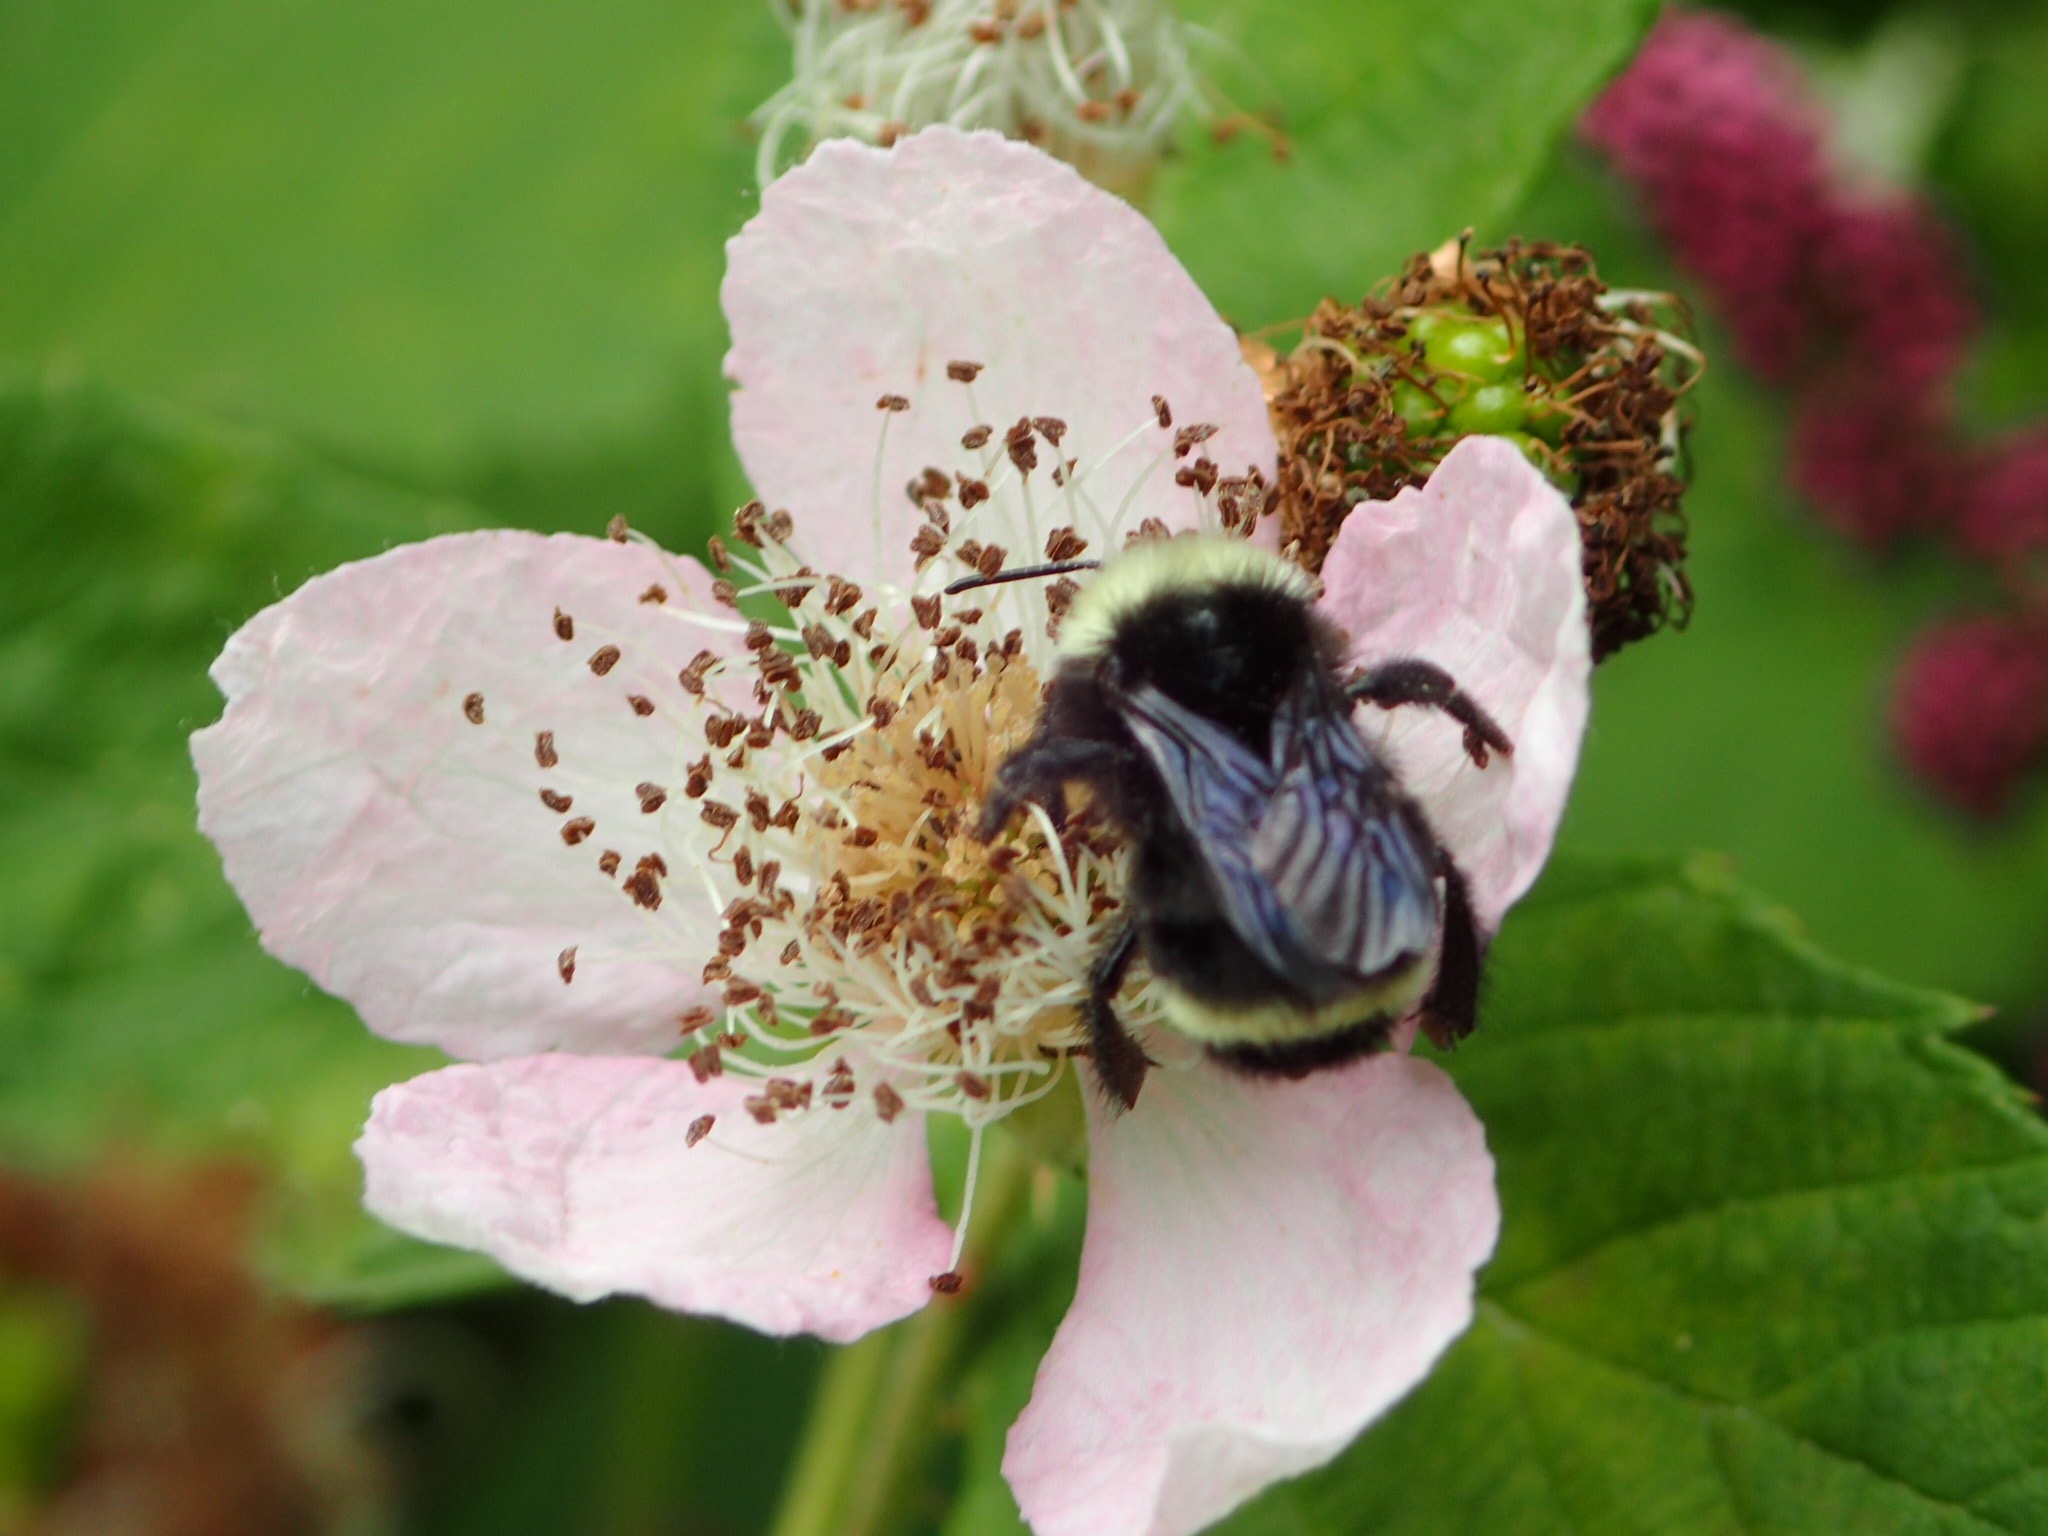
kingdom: Animalia
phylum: Arthropoda
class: Insecta
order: Hymenoptera
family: Apidae
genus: Bombus
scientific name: Bombus vosnesenskii
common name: Vosnesensky bumble bee
